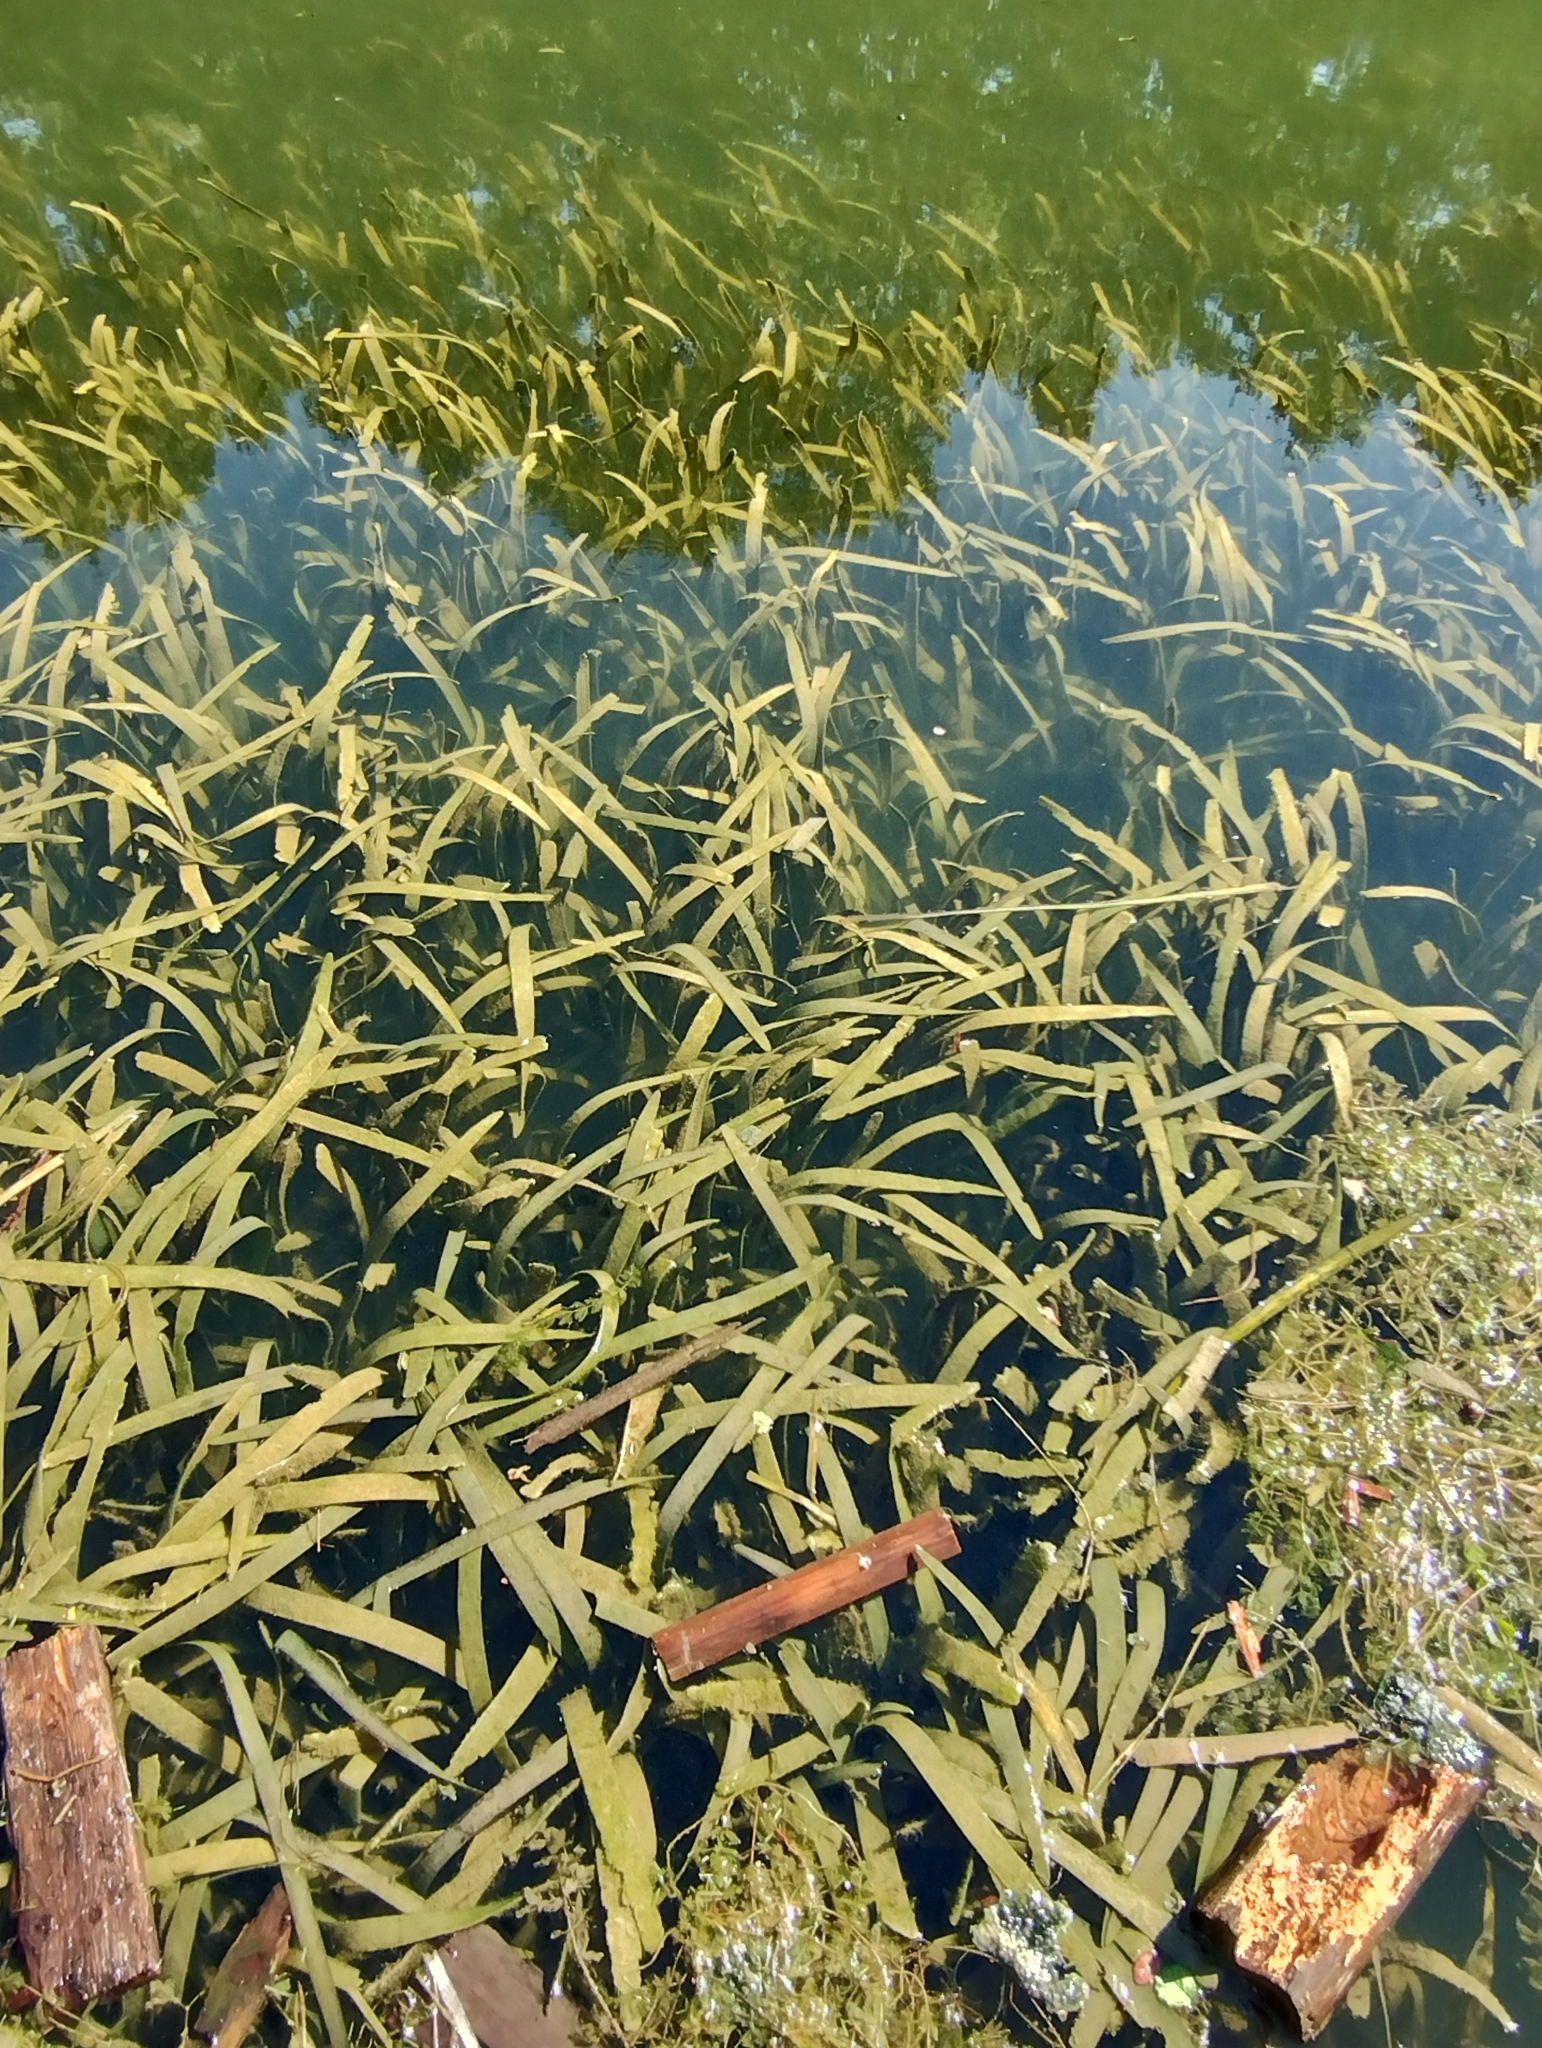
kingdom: Plantae
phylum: Tracheophyta
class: Liliopsida
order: Alismatales
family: Hydrocharitaceae
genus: Vallisneria
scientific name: Vallisneria australis
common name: Australian eelgrass
